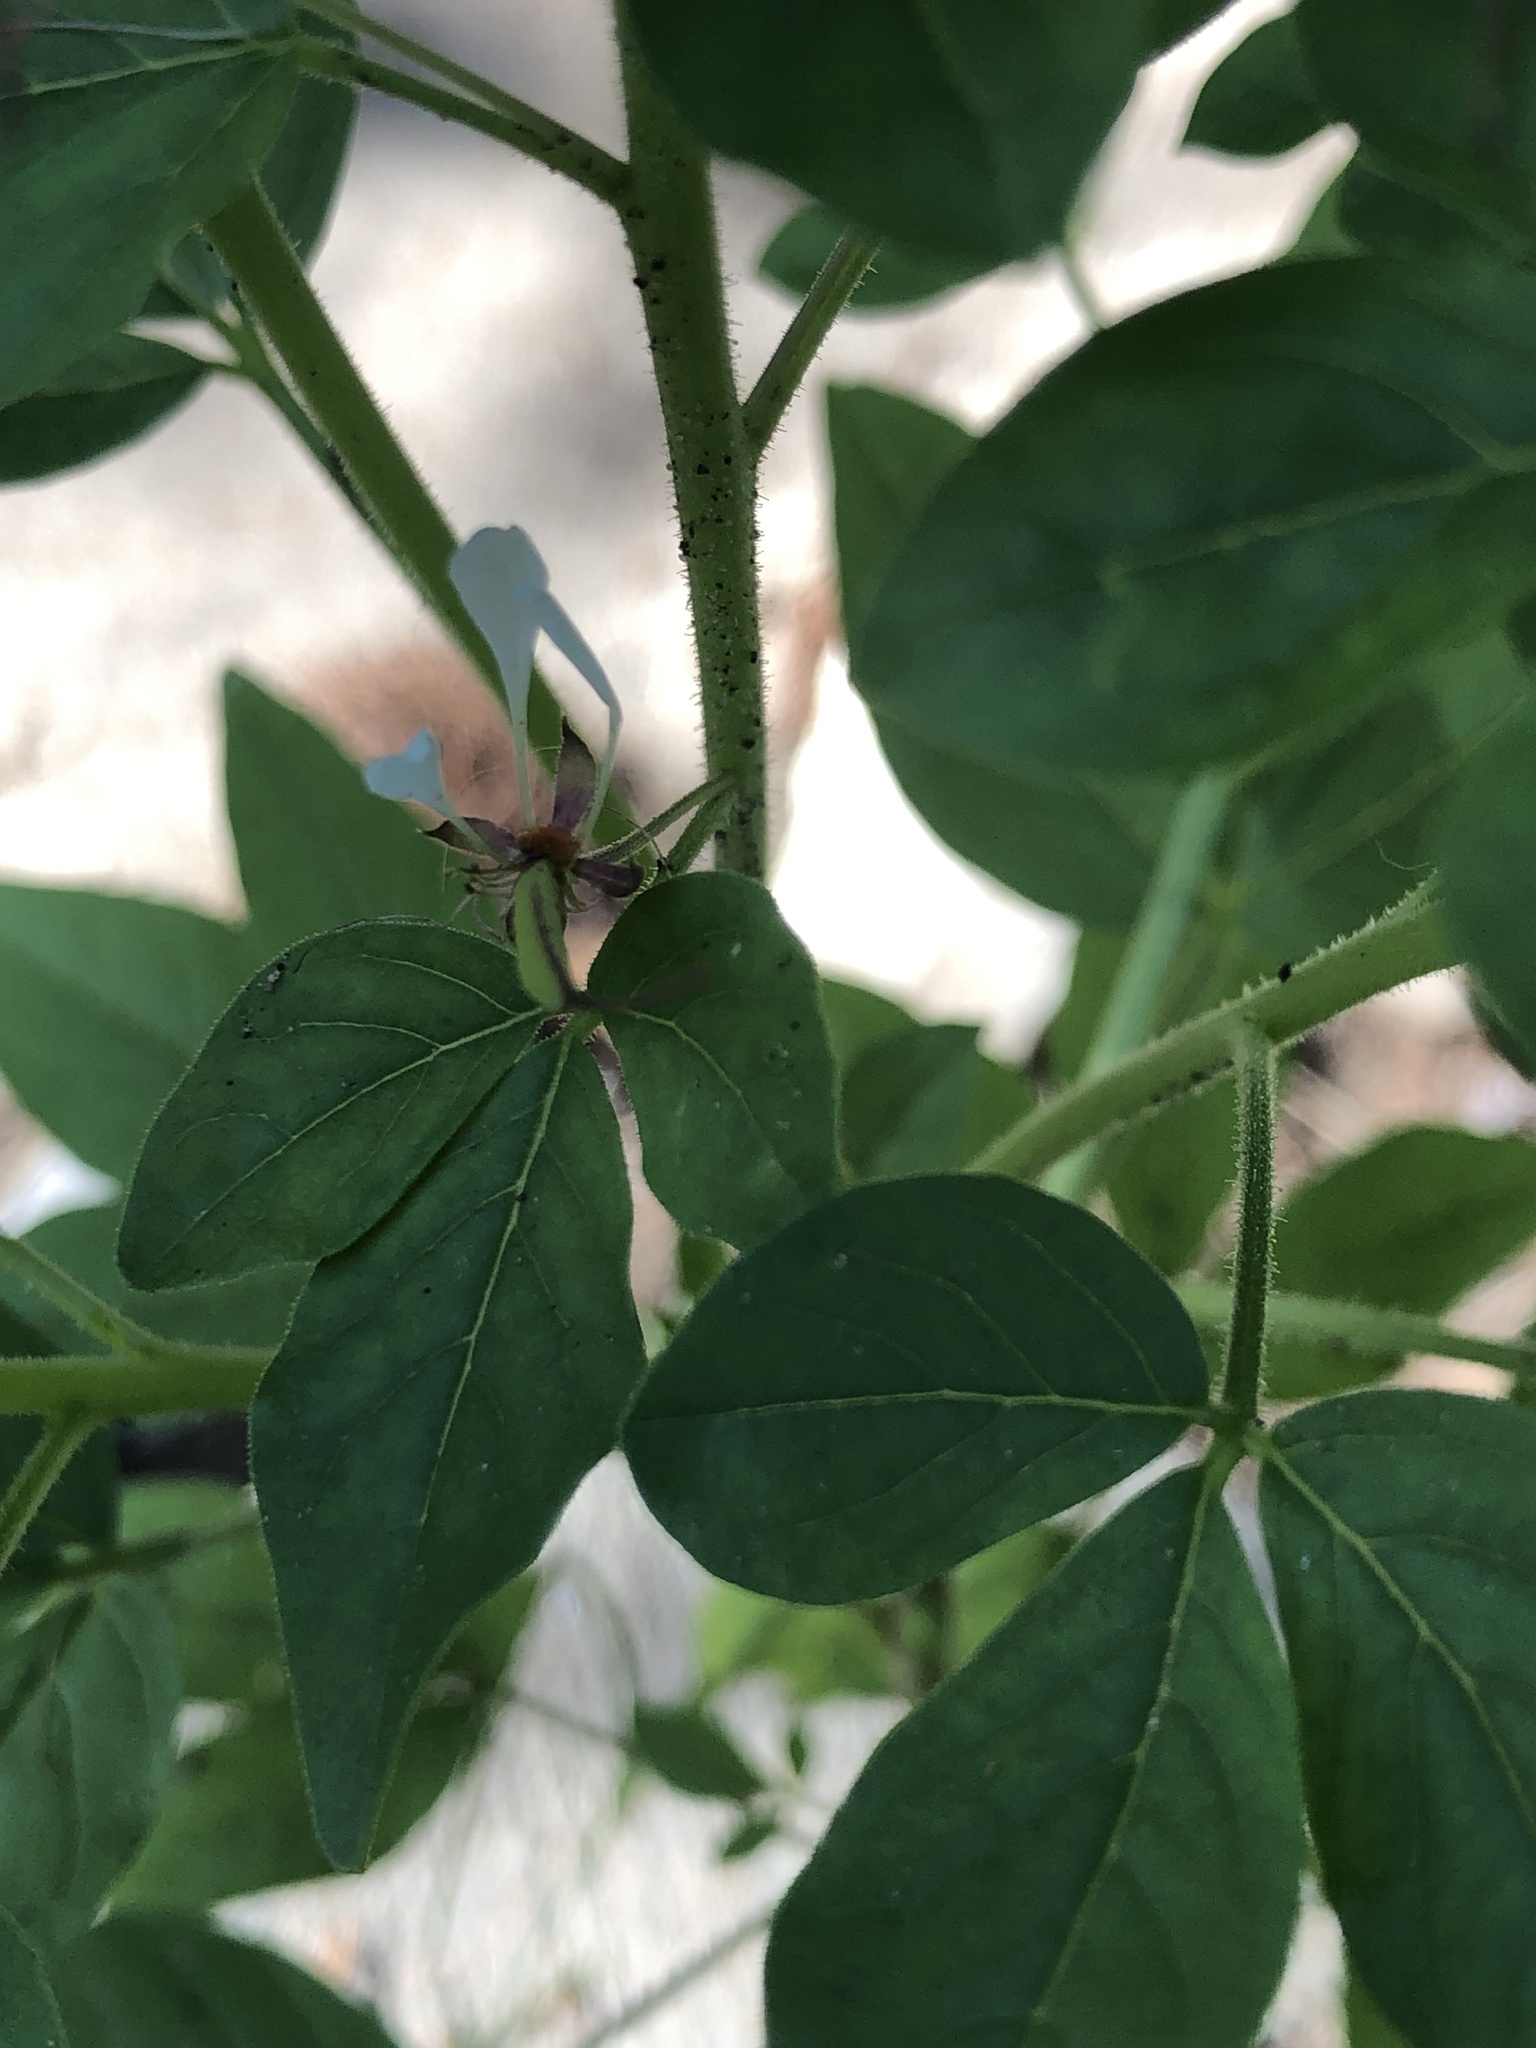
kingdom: Plantae
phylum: Tracheophyta
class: Magnoliopsida
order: Brassicales
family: Cleomaceae
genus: Polanisia
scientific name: Polanisia dodecandra
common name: Clammyweed
